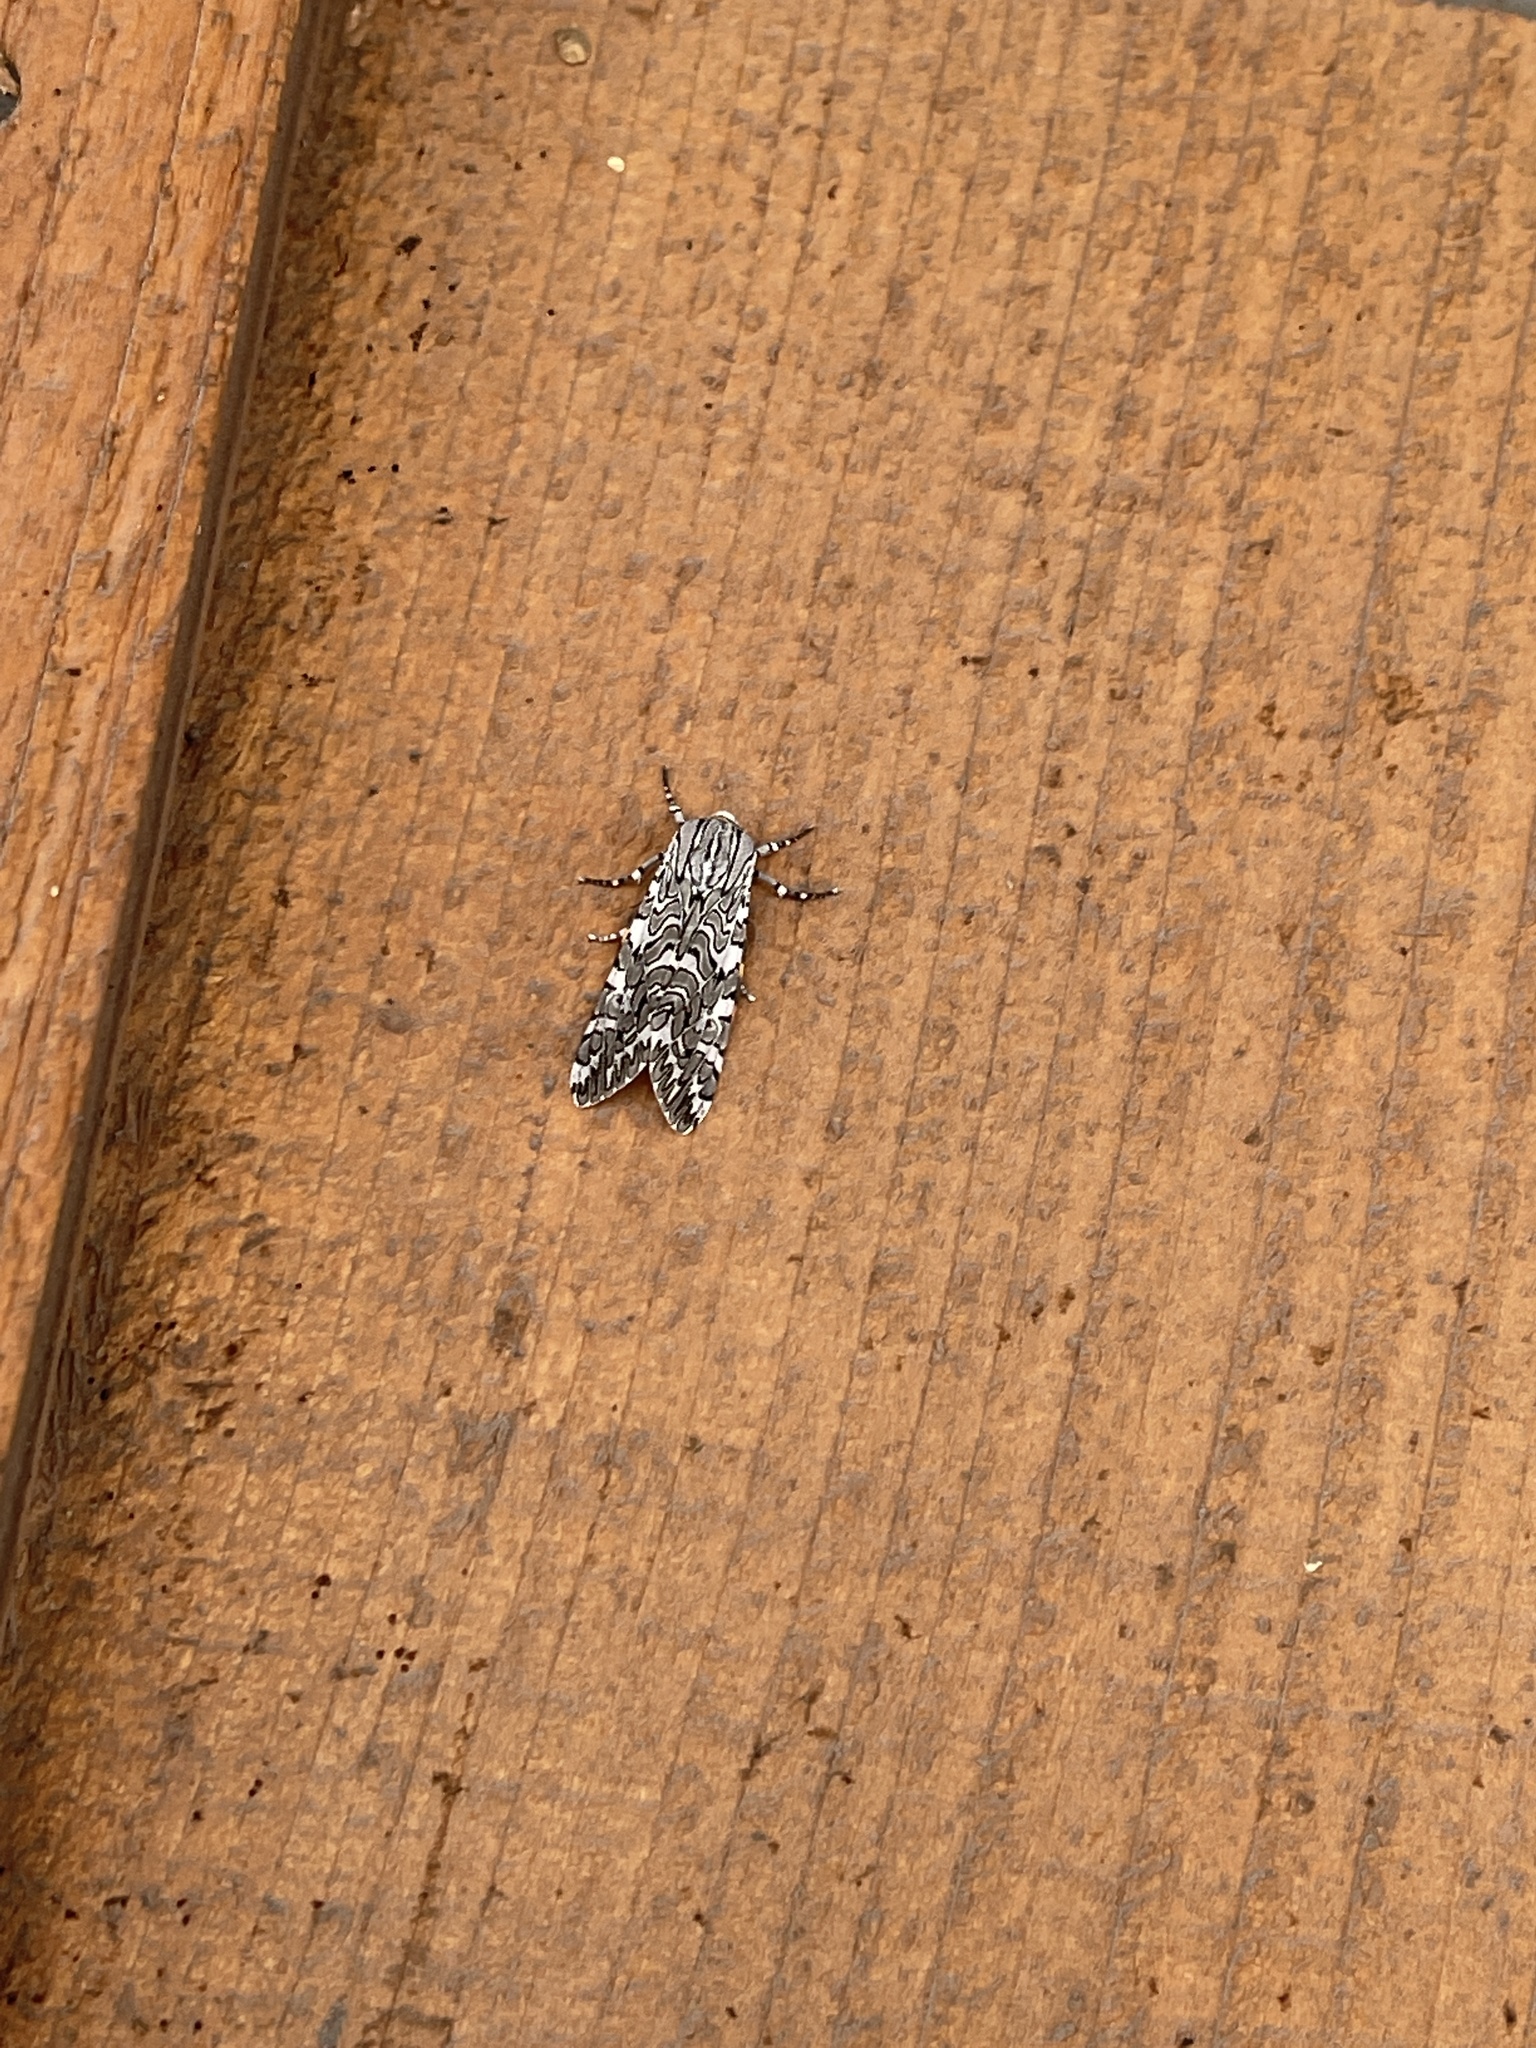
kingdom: Animalia
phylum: Arthropoda
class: Insecta
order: Lepidoptera
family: Erebidae
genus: Arachnis
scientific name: Arachnis picta
